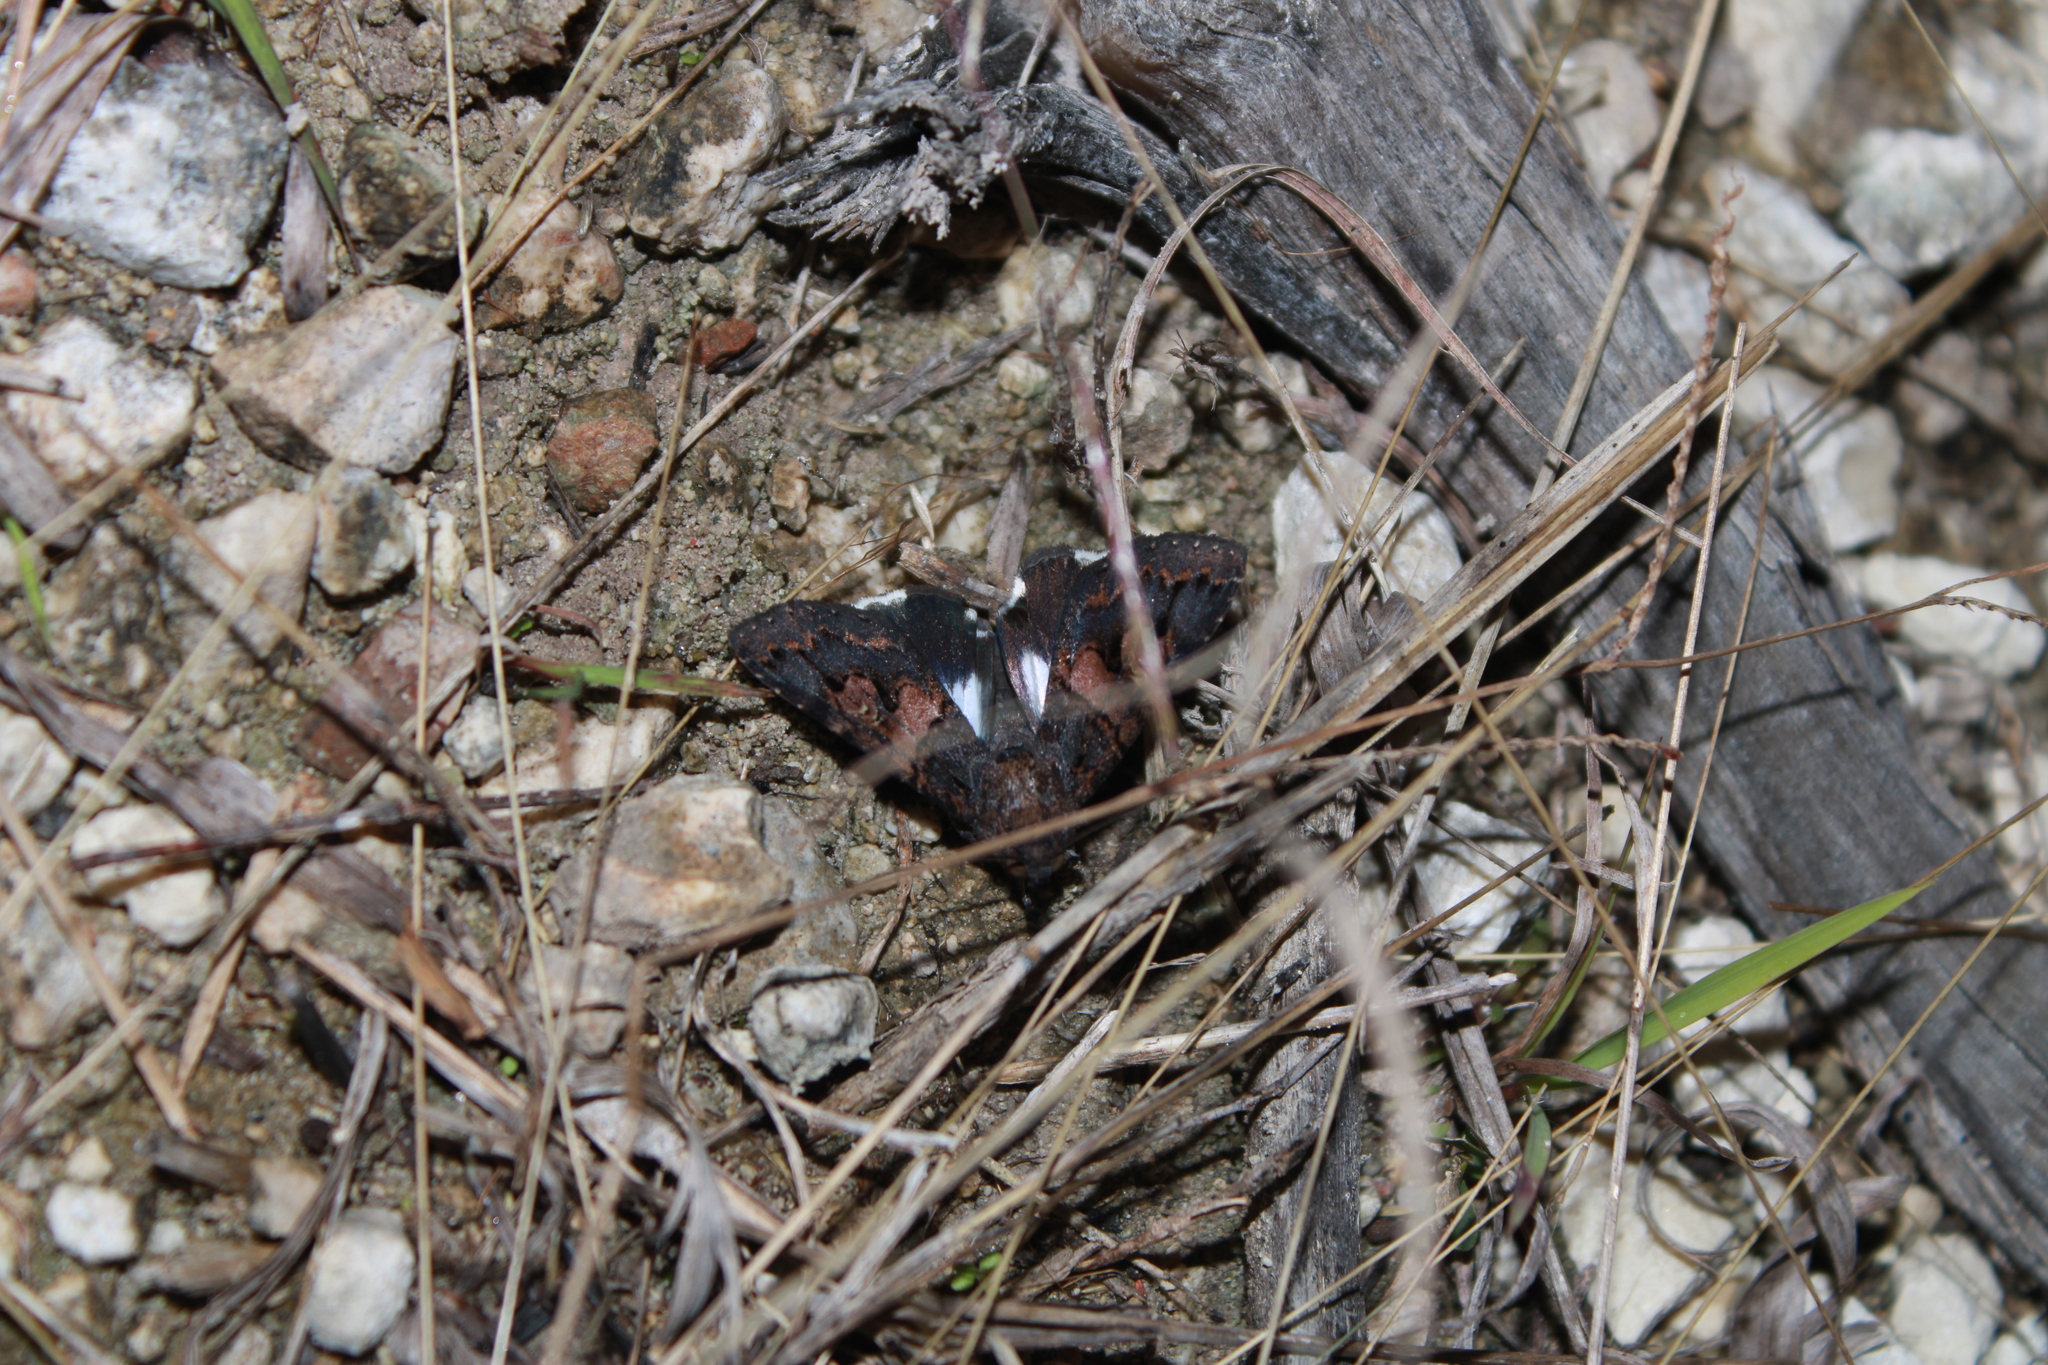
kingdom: Animalia
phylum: Arthropoda
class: Insecta
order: Lepidoptera
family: Erebidae
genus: Melipotis
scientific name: Melipotis prolata
